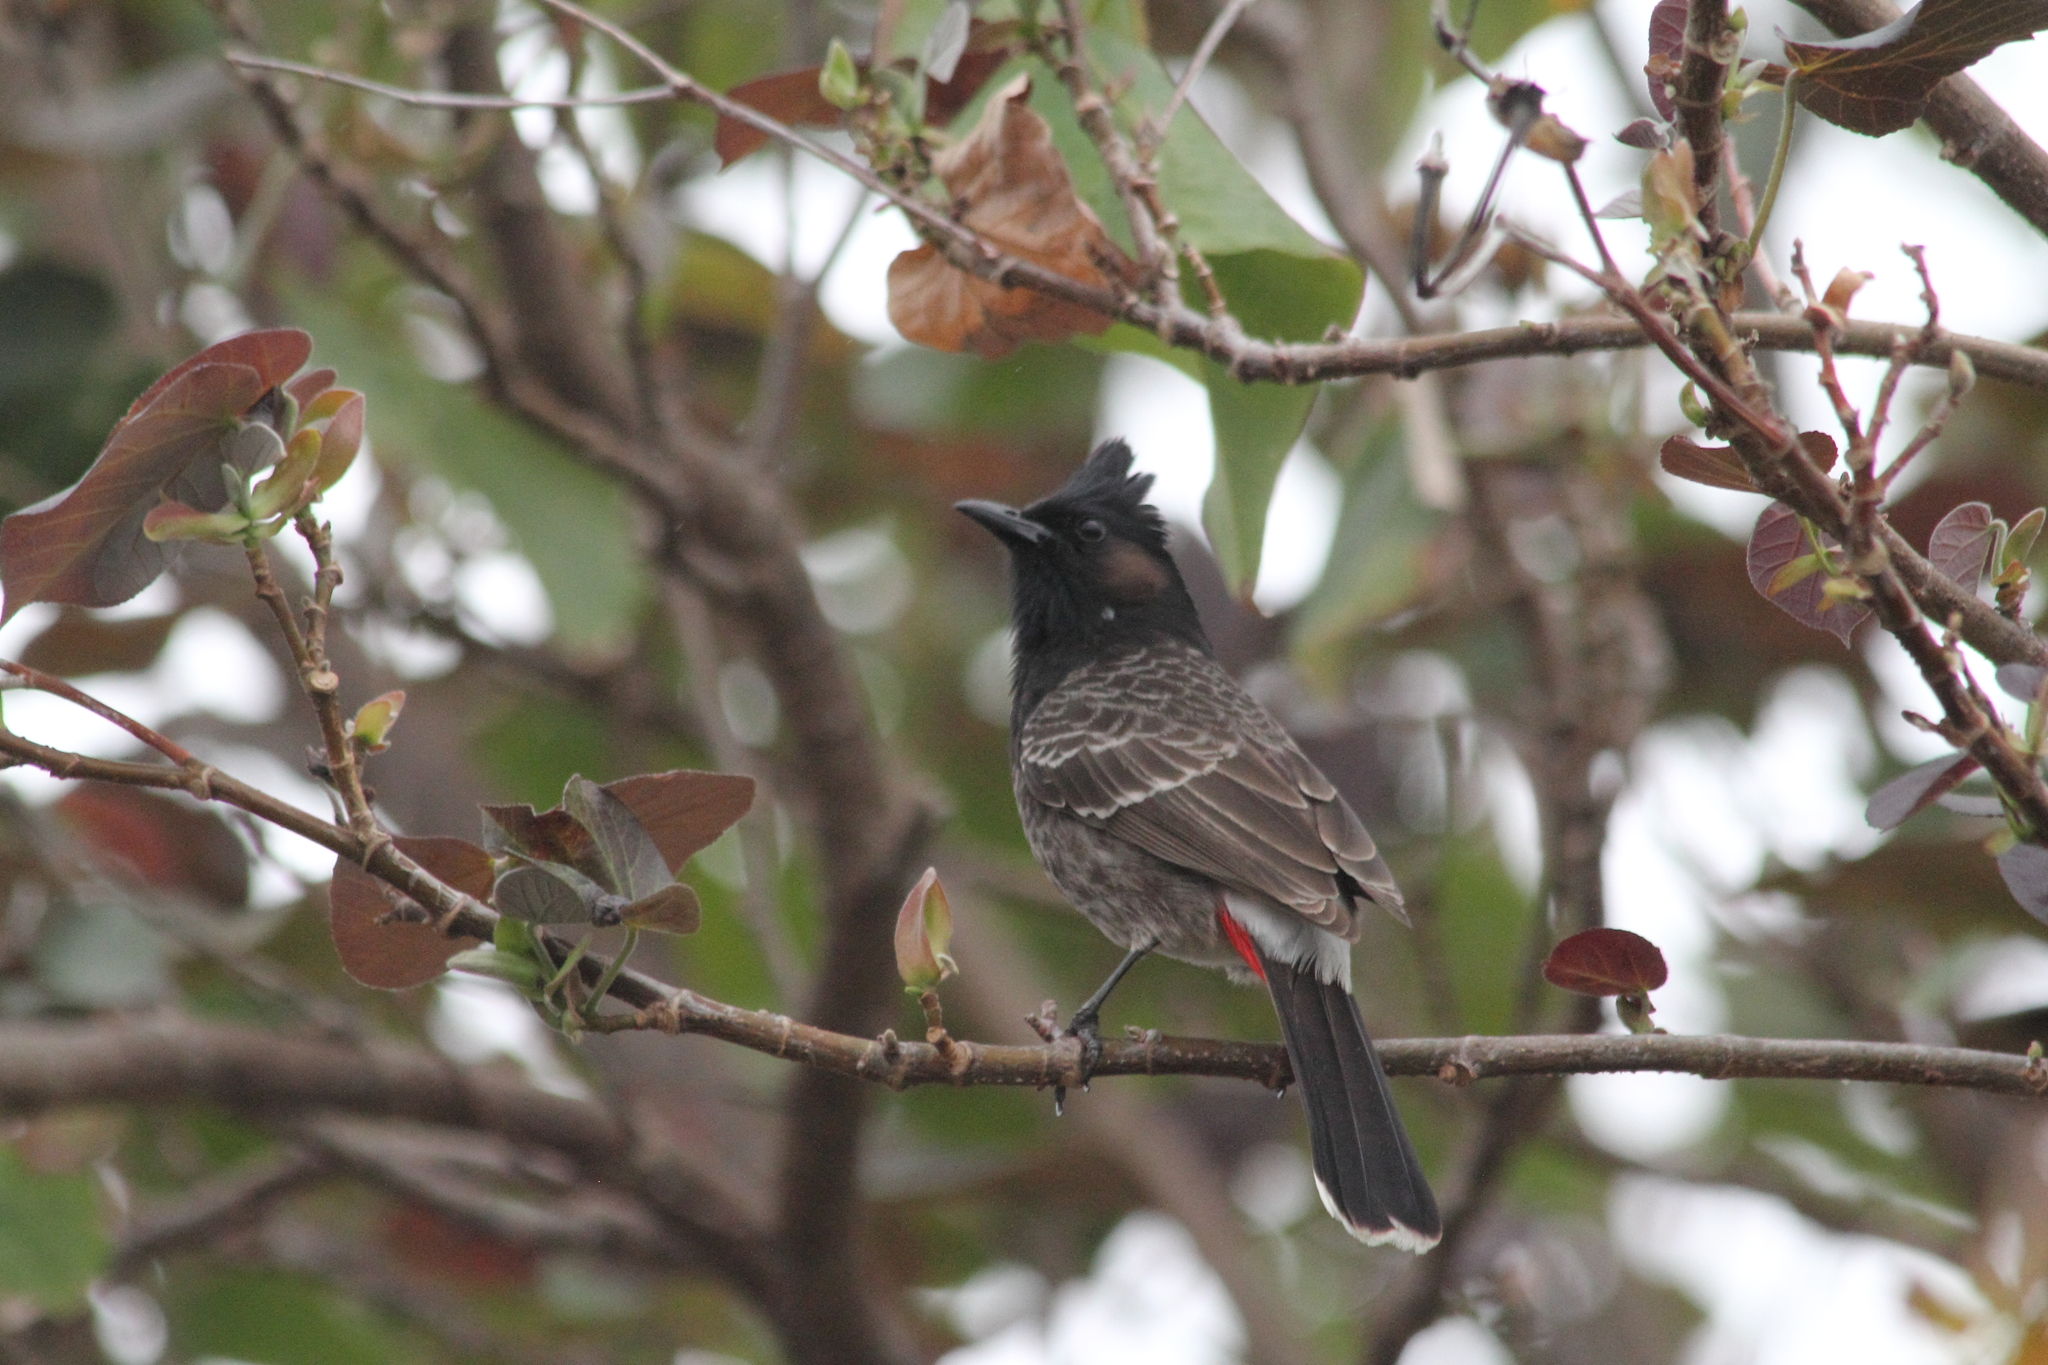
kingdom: Animalia
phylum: Chordata
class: Aves
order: Passeriformes
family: Pycnonotidae
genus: Pycnonotus
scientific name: Pycnonotus cafer
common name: Red-vented bulbul
